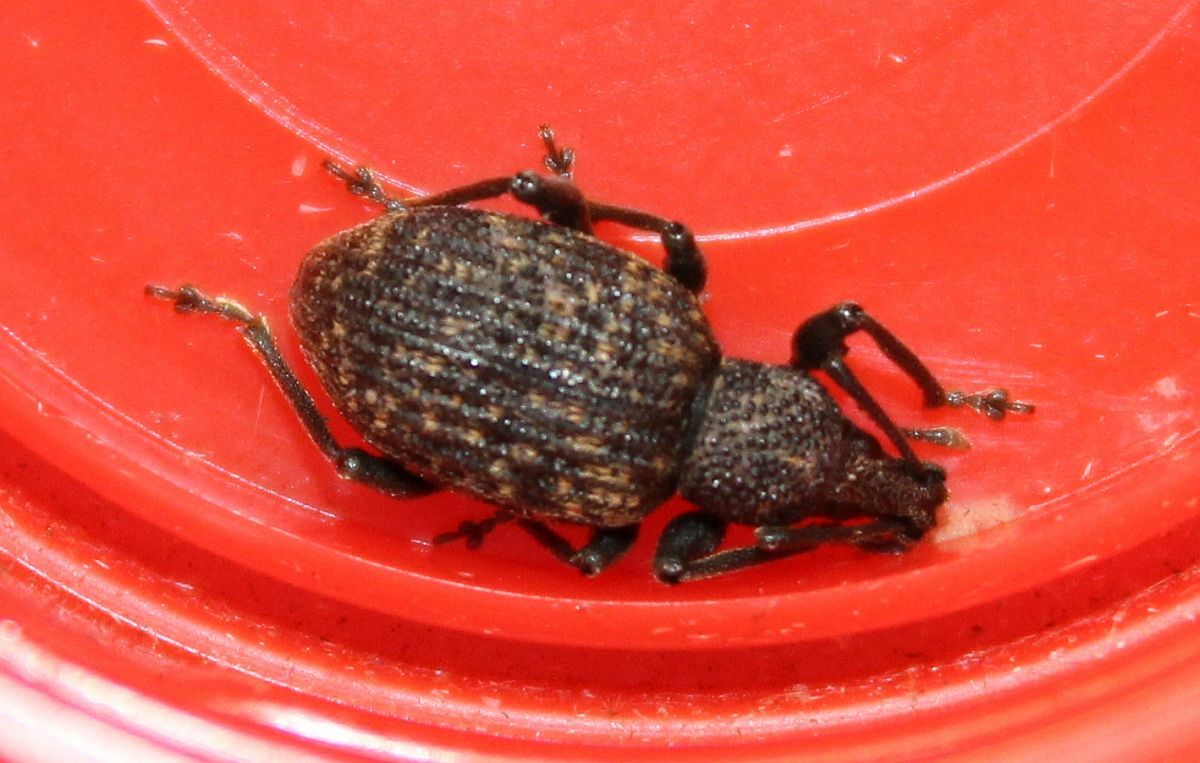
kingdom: Animalia
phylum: Arthropoda
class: Insecta
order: Coleoptera
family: Curculionidae
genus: Otiorhynchus
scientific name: Otiorhynchus sulcatus
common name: Black vine weevil
